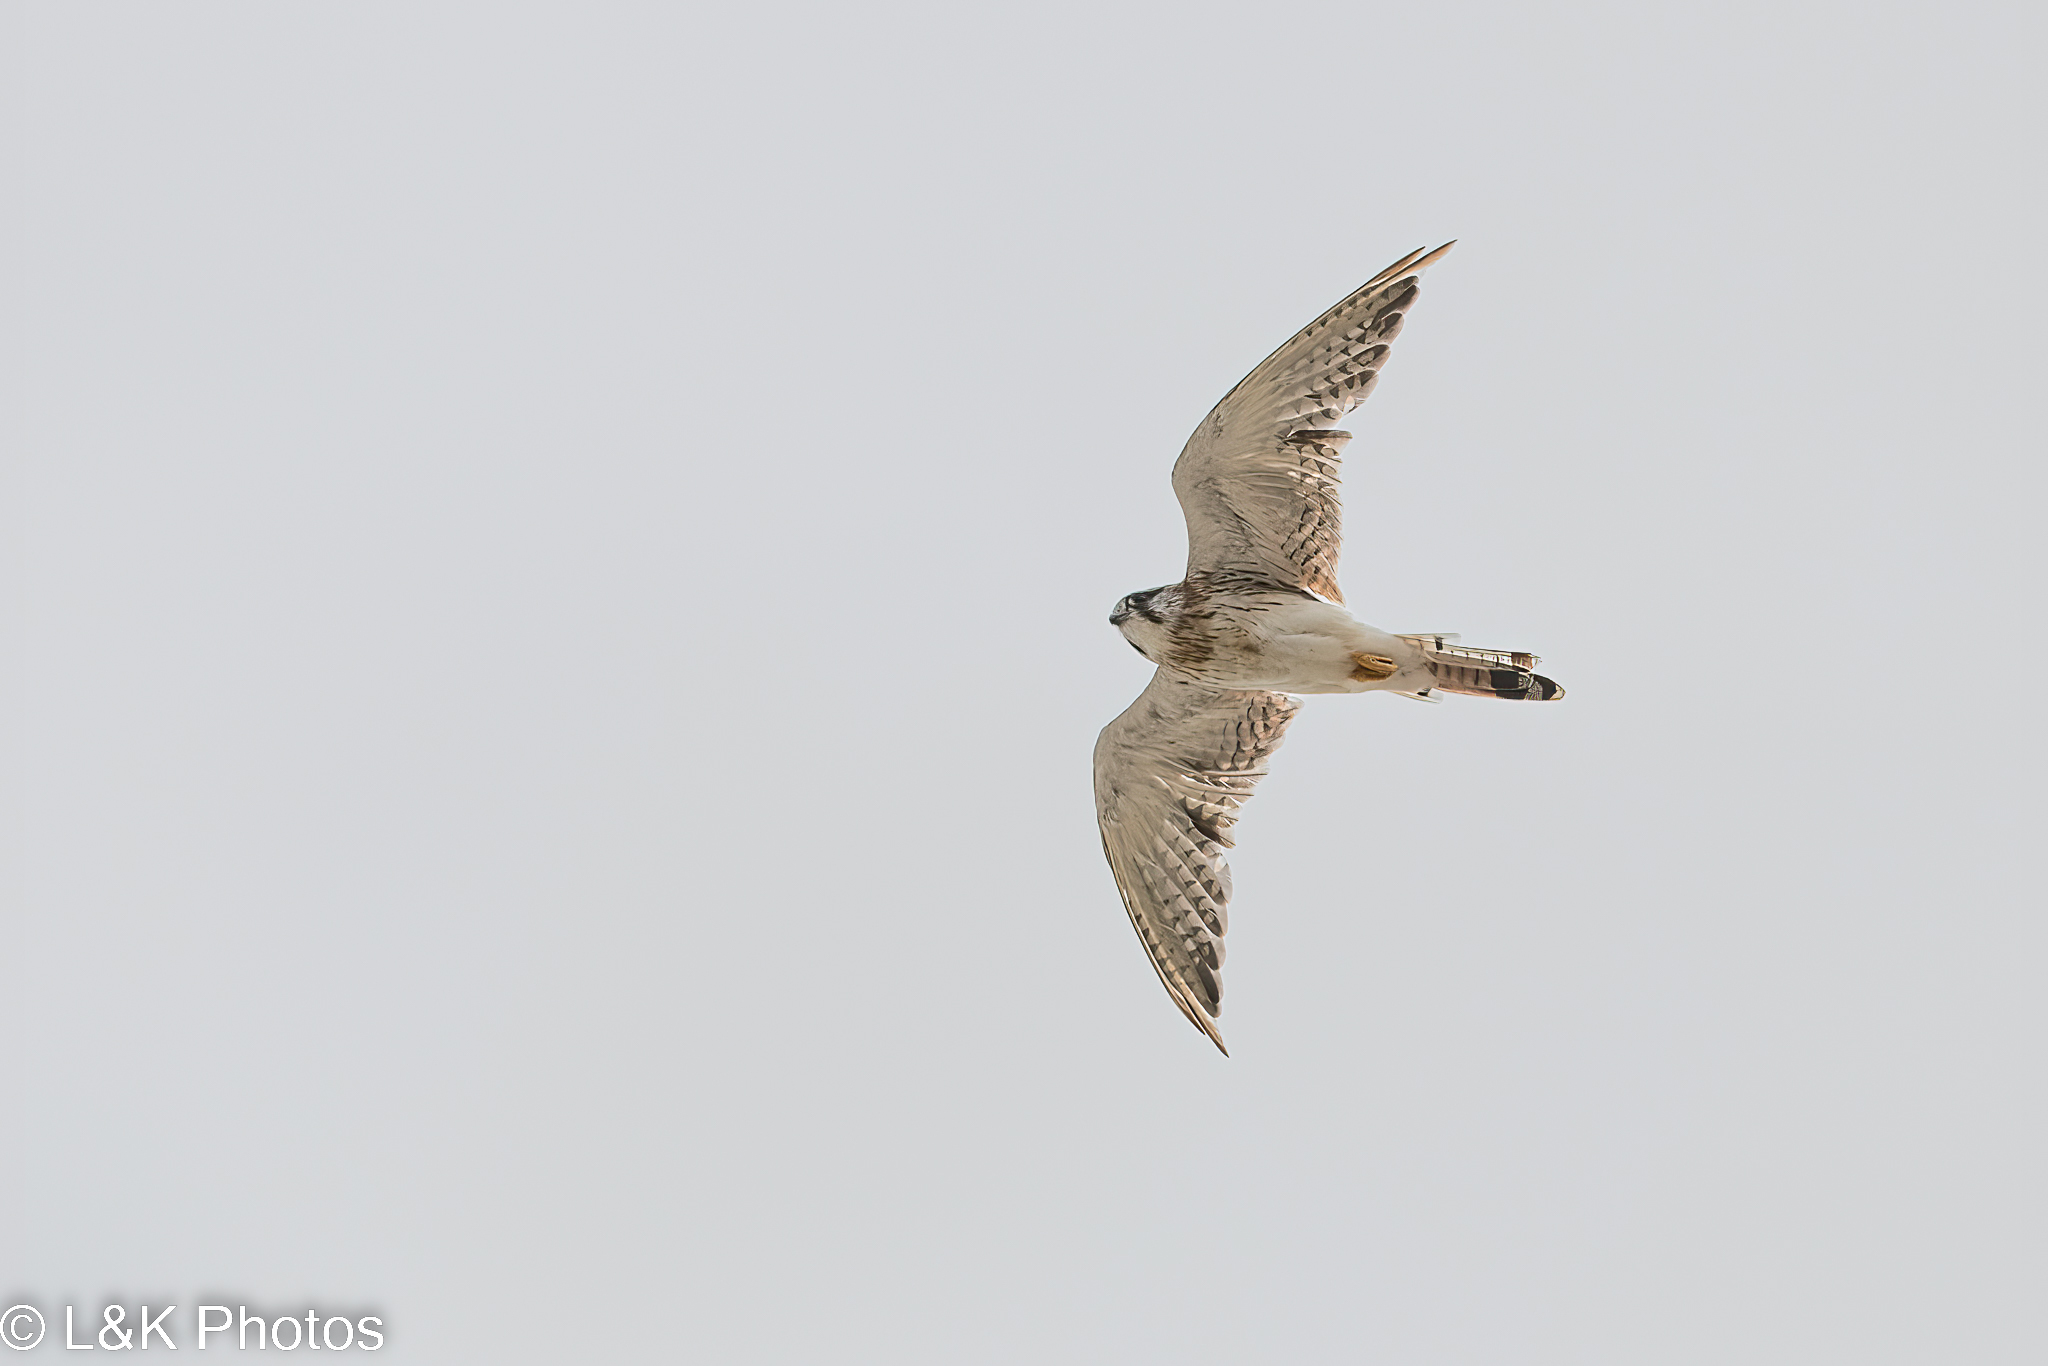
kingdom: Animalia
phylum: Chordata
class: Aves
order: Falconiformes
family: Falconidae
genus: Falco
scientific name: Falco cenchroides
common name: Nankeen kestrel
